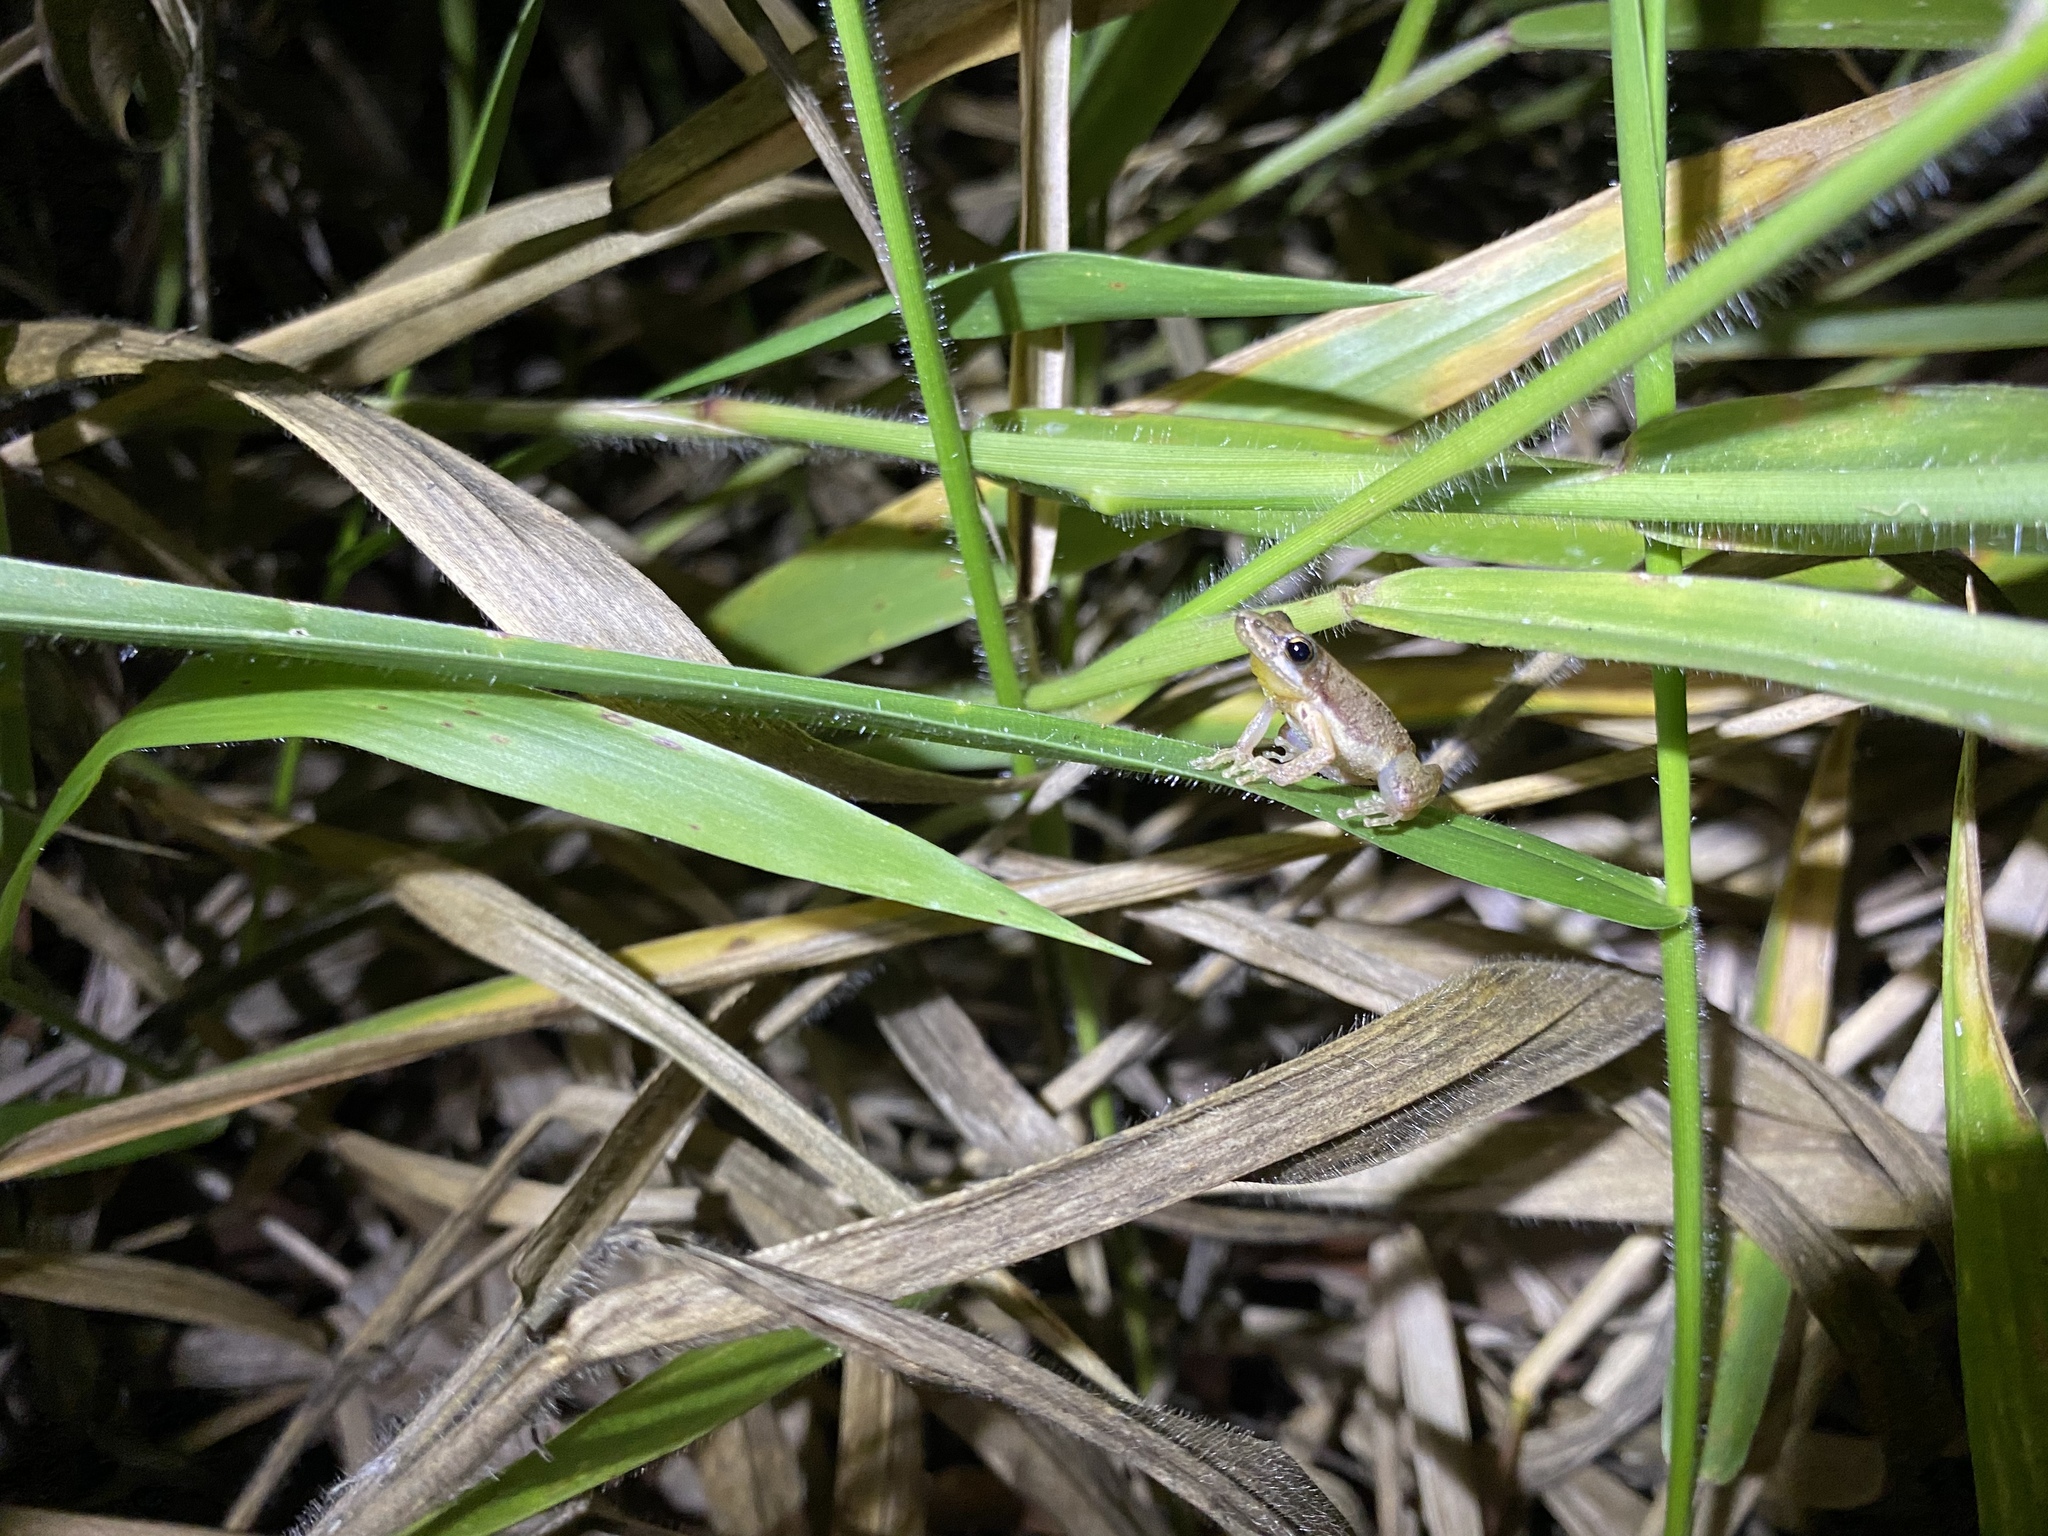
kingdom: Animalia
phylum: Chordata
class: Amphibia
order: Anura
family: Pelodryadidae
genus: Litoria
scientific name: Litoria microbelos
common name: Javelin frog
